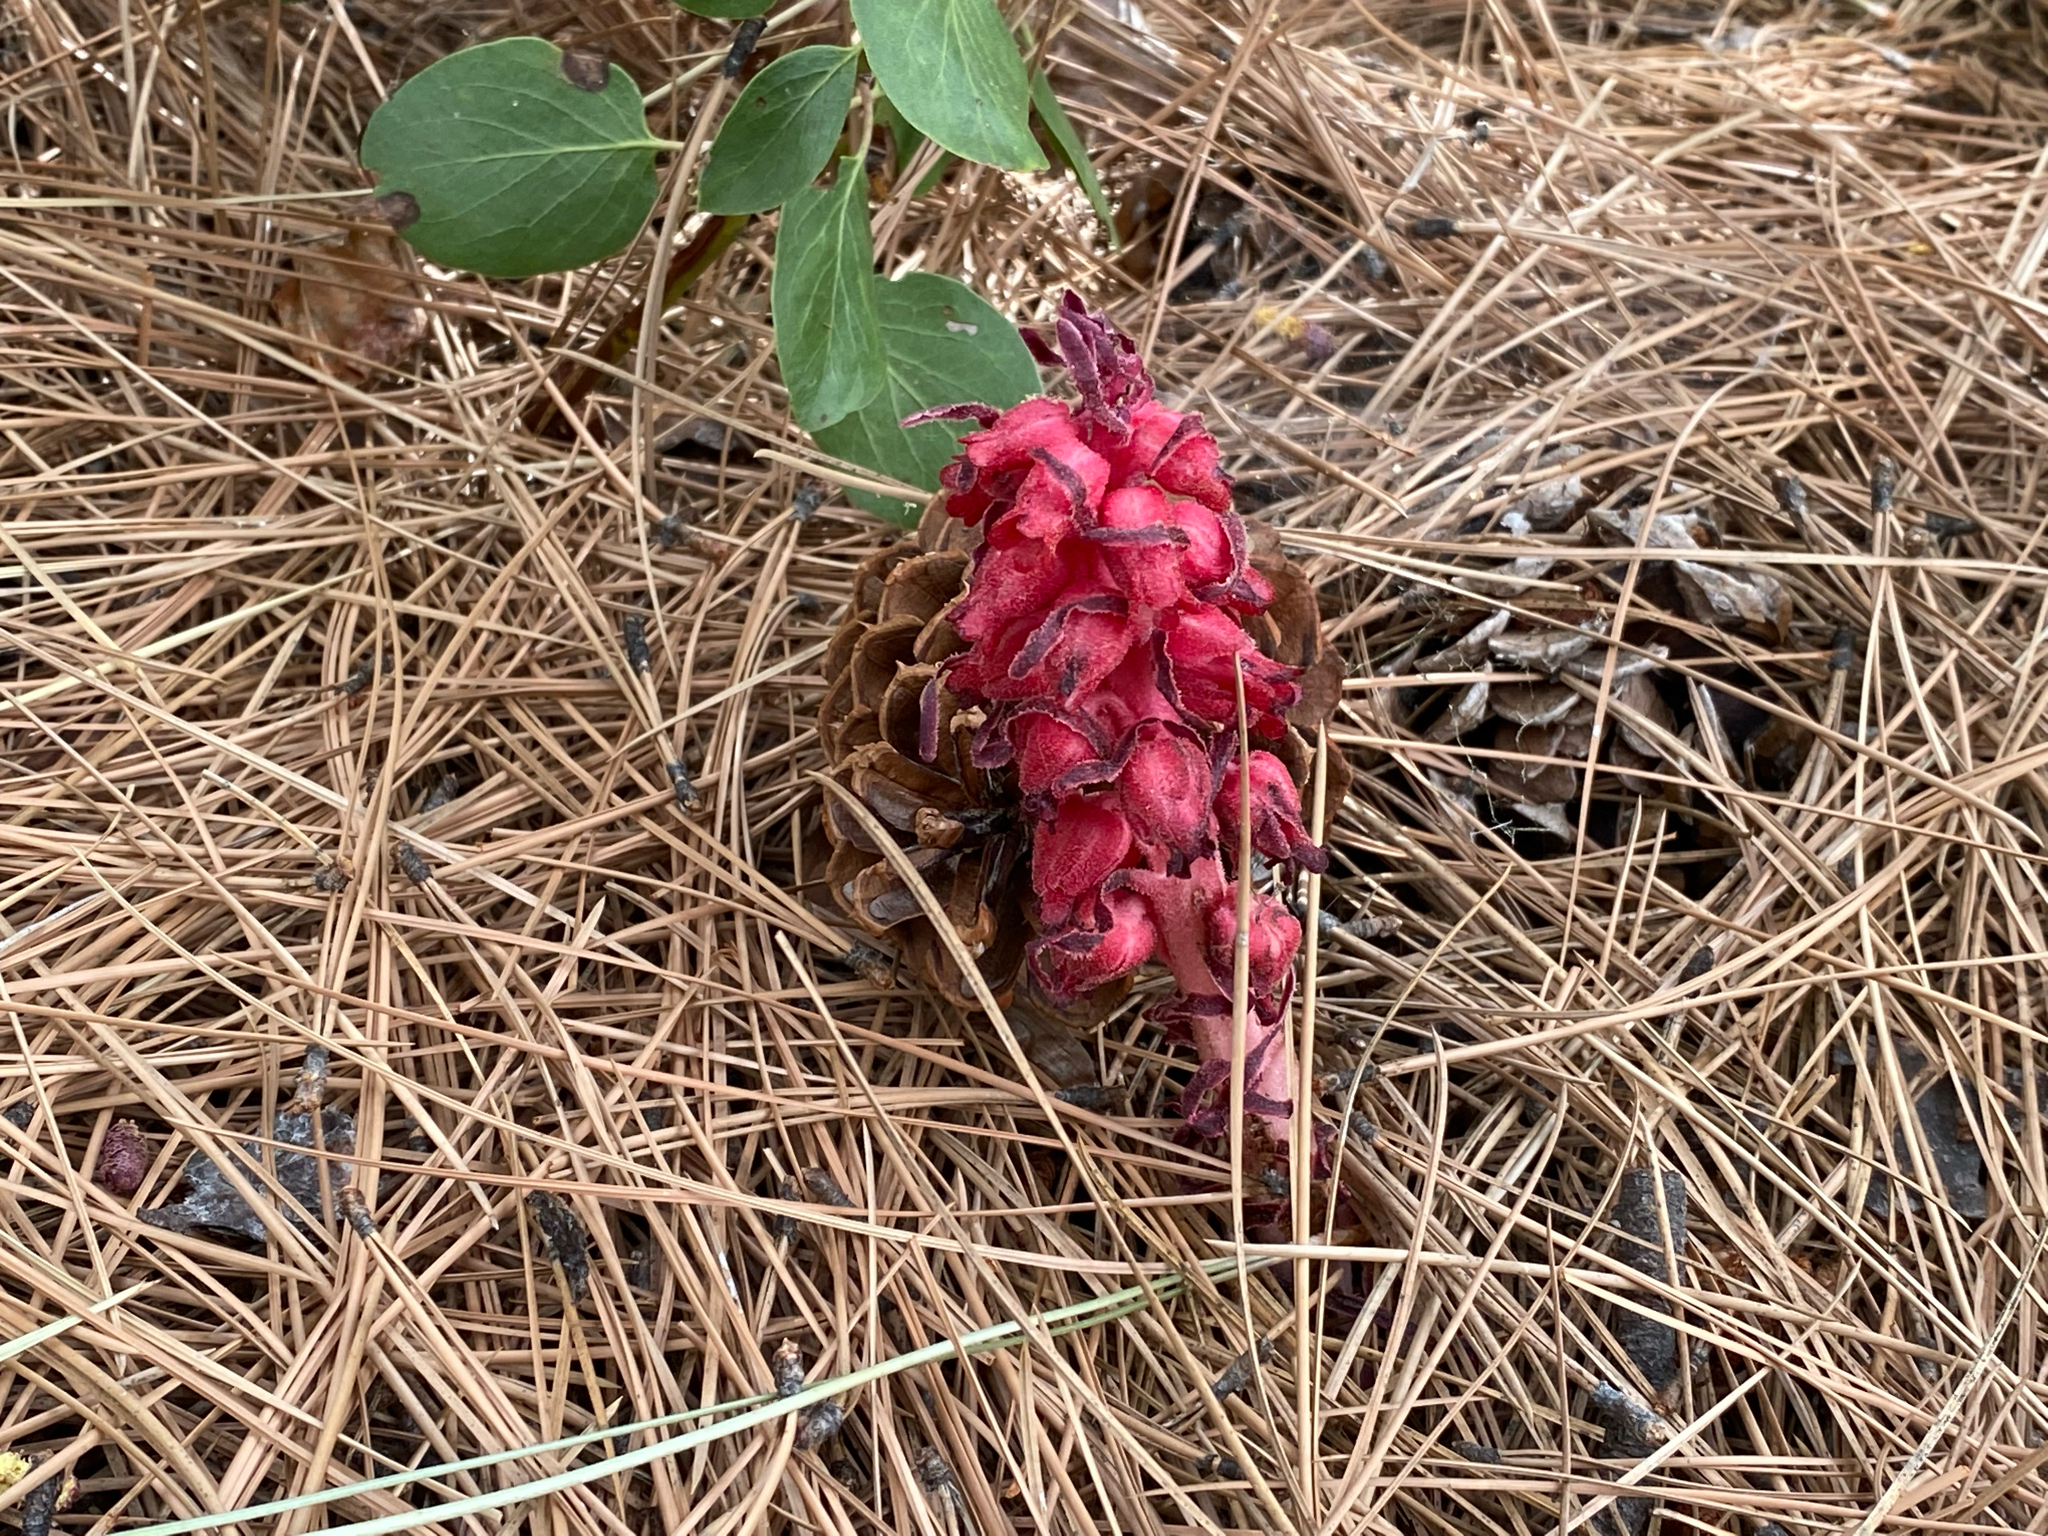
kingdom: Plantae
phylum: Tracheophyta
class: Magnoliopsida
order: Ericales
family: Ericaceae
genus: Sarcodes
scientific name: Sarcodes sanguinea
